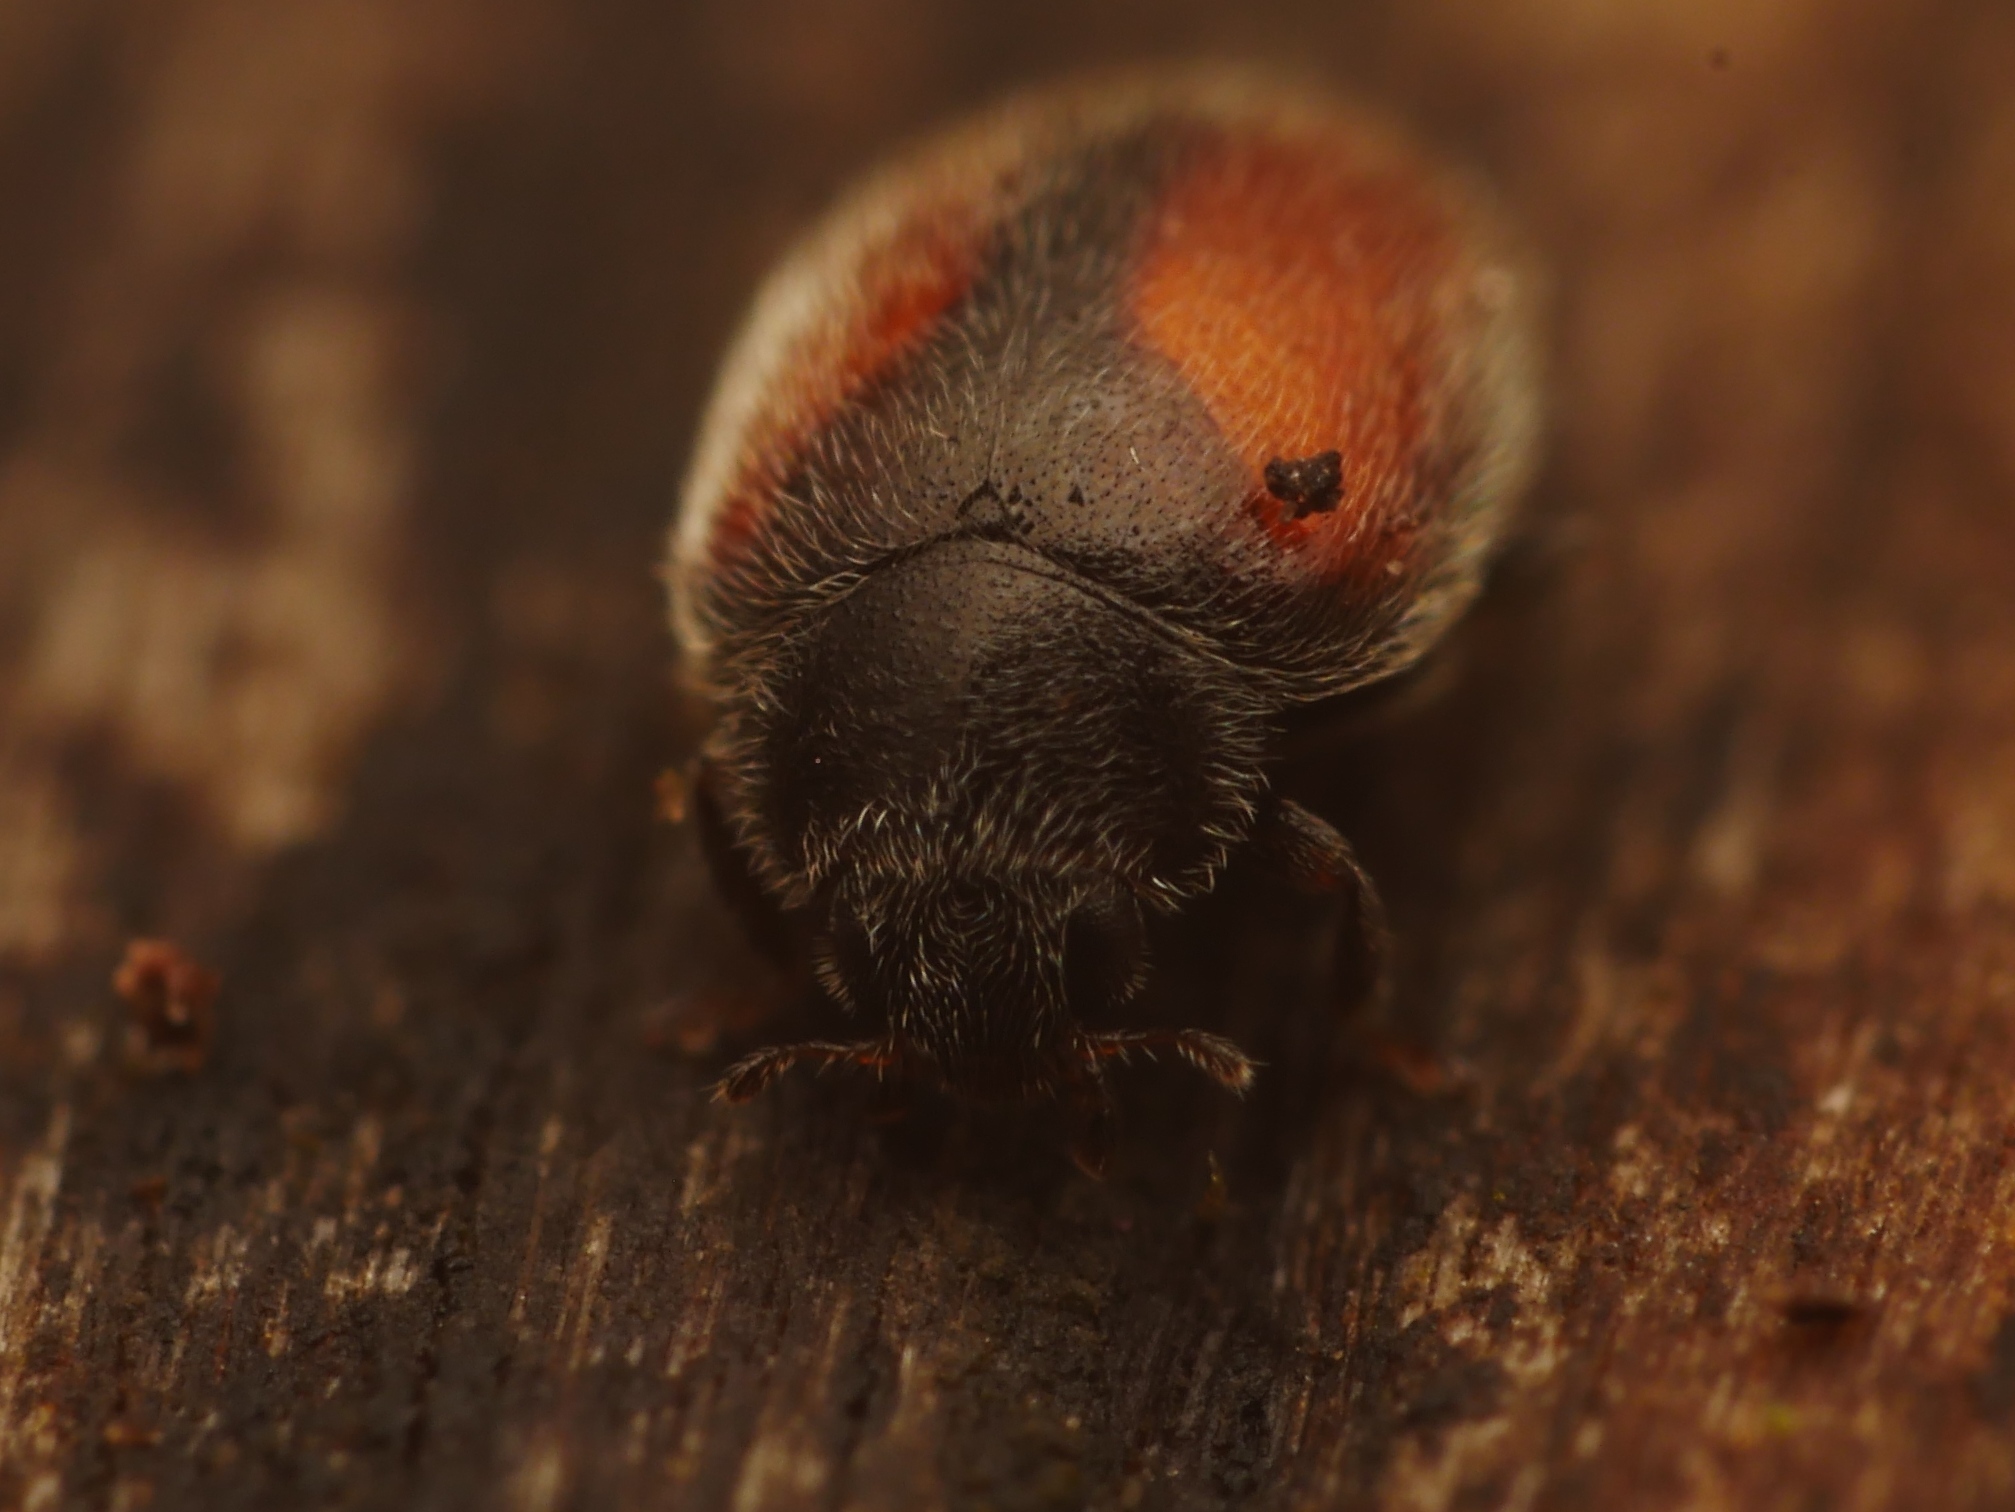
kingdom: Animalia
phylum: Arthropoda
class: Insecta
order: Coleoptera
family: Coccinellidae
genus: Scymnus
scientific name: Scymnus suturalis
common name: Ladybird beetle
